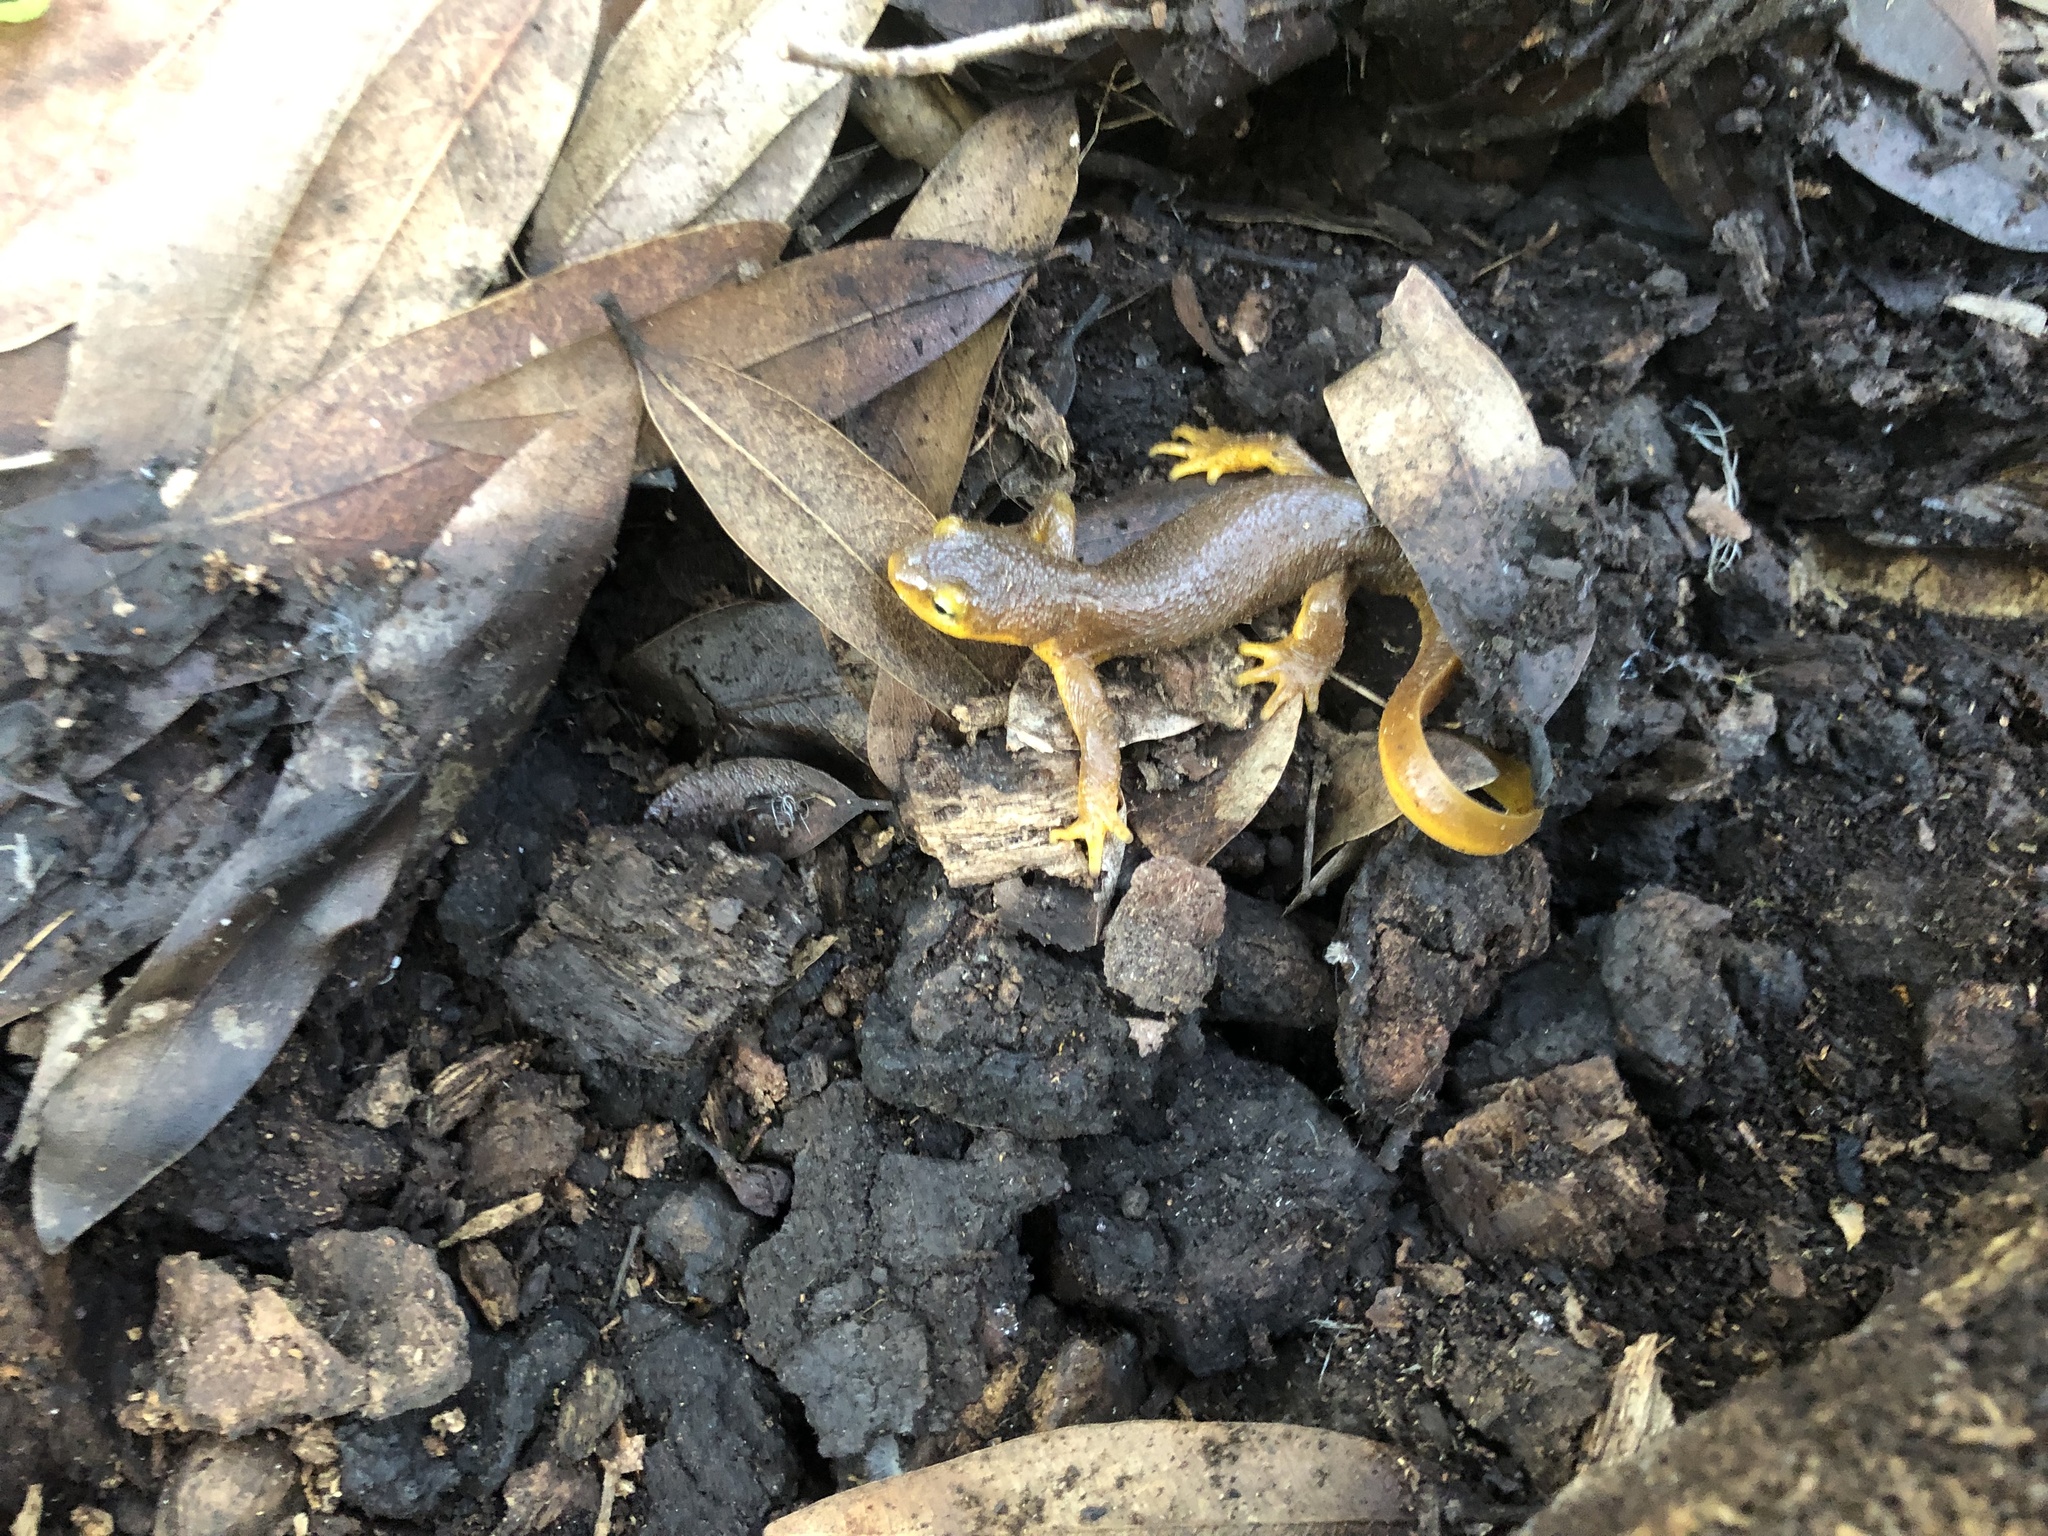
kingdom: Animalia
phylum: Chordata
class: Amphibia
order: Caudata
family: Salamandridae
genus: Taricha
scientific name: Taricha torosa
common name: California newt
